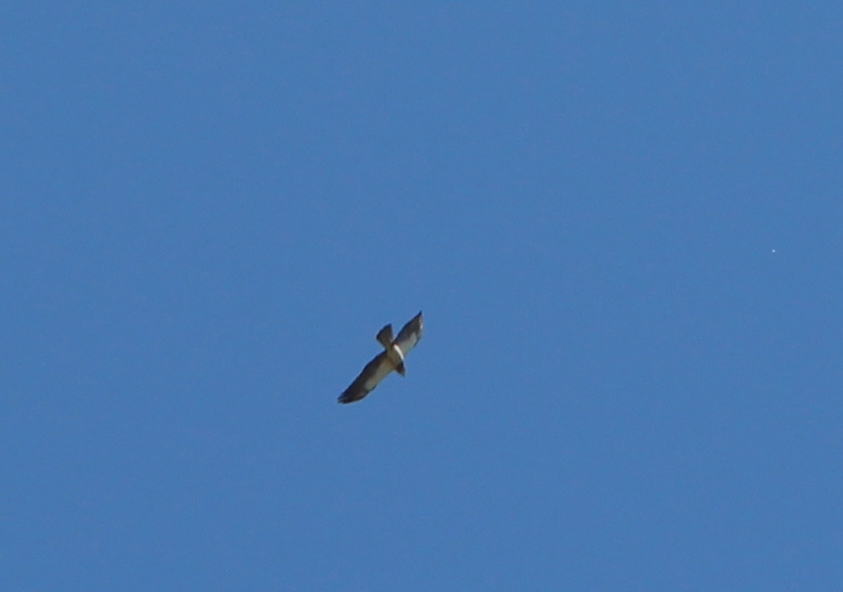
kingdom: Animalia
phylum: Chordata
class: Aves
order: Accipitriformes
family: Accipitridae
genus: Buteo
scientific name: Buteo swainsoni
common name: Swainson's hawk
